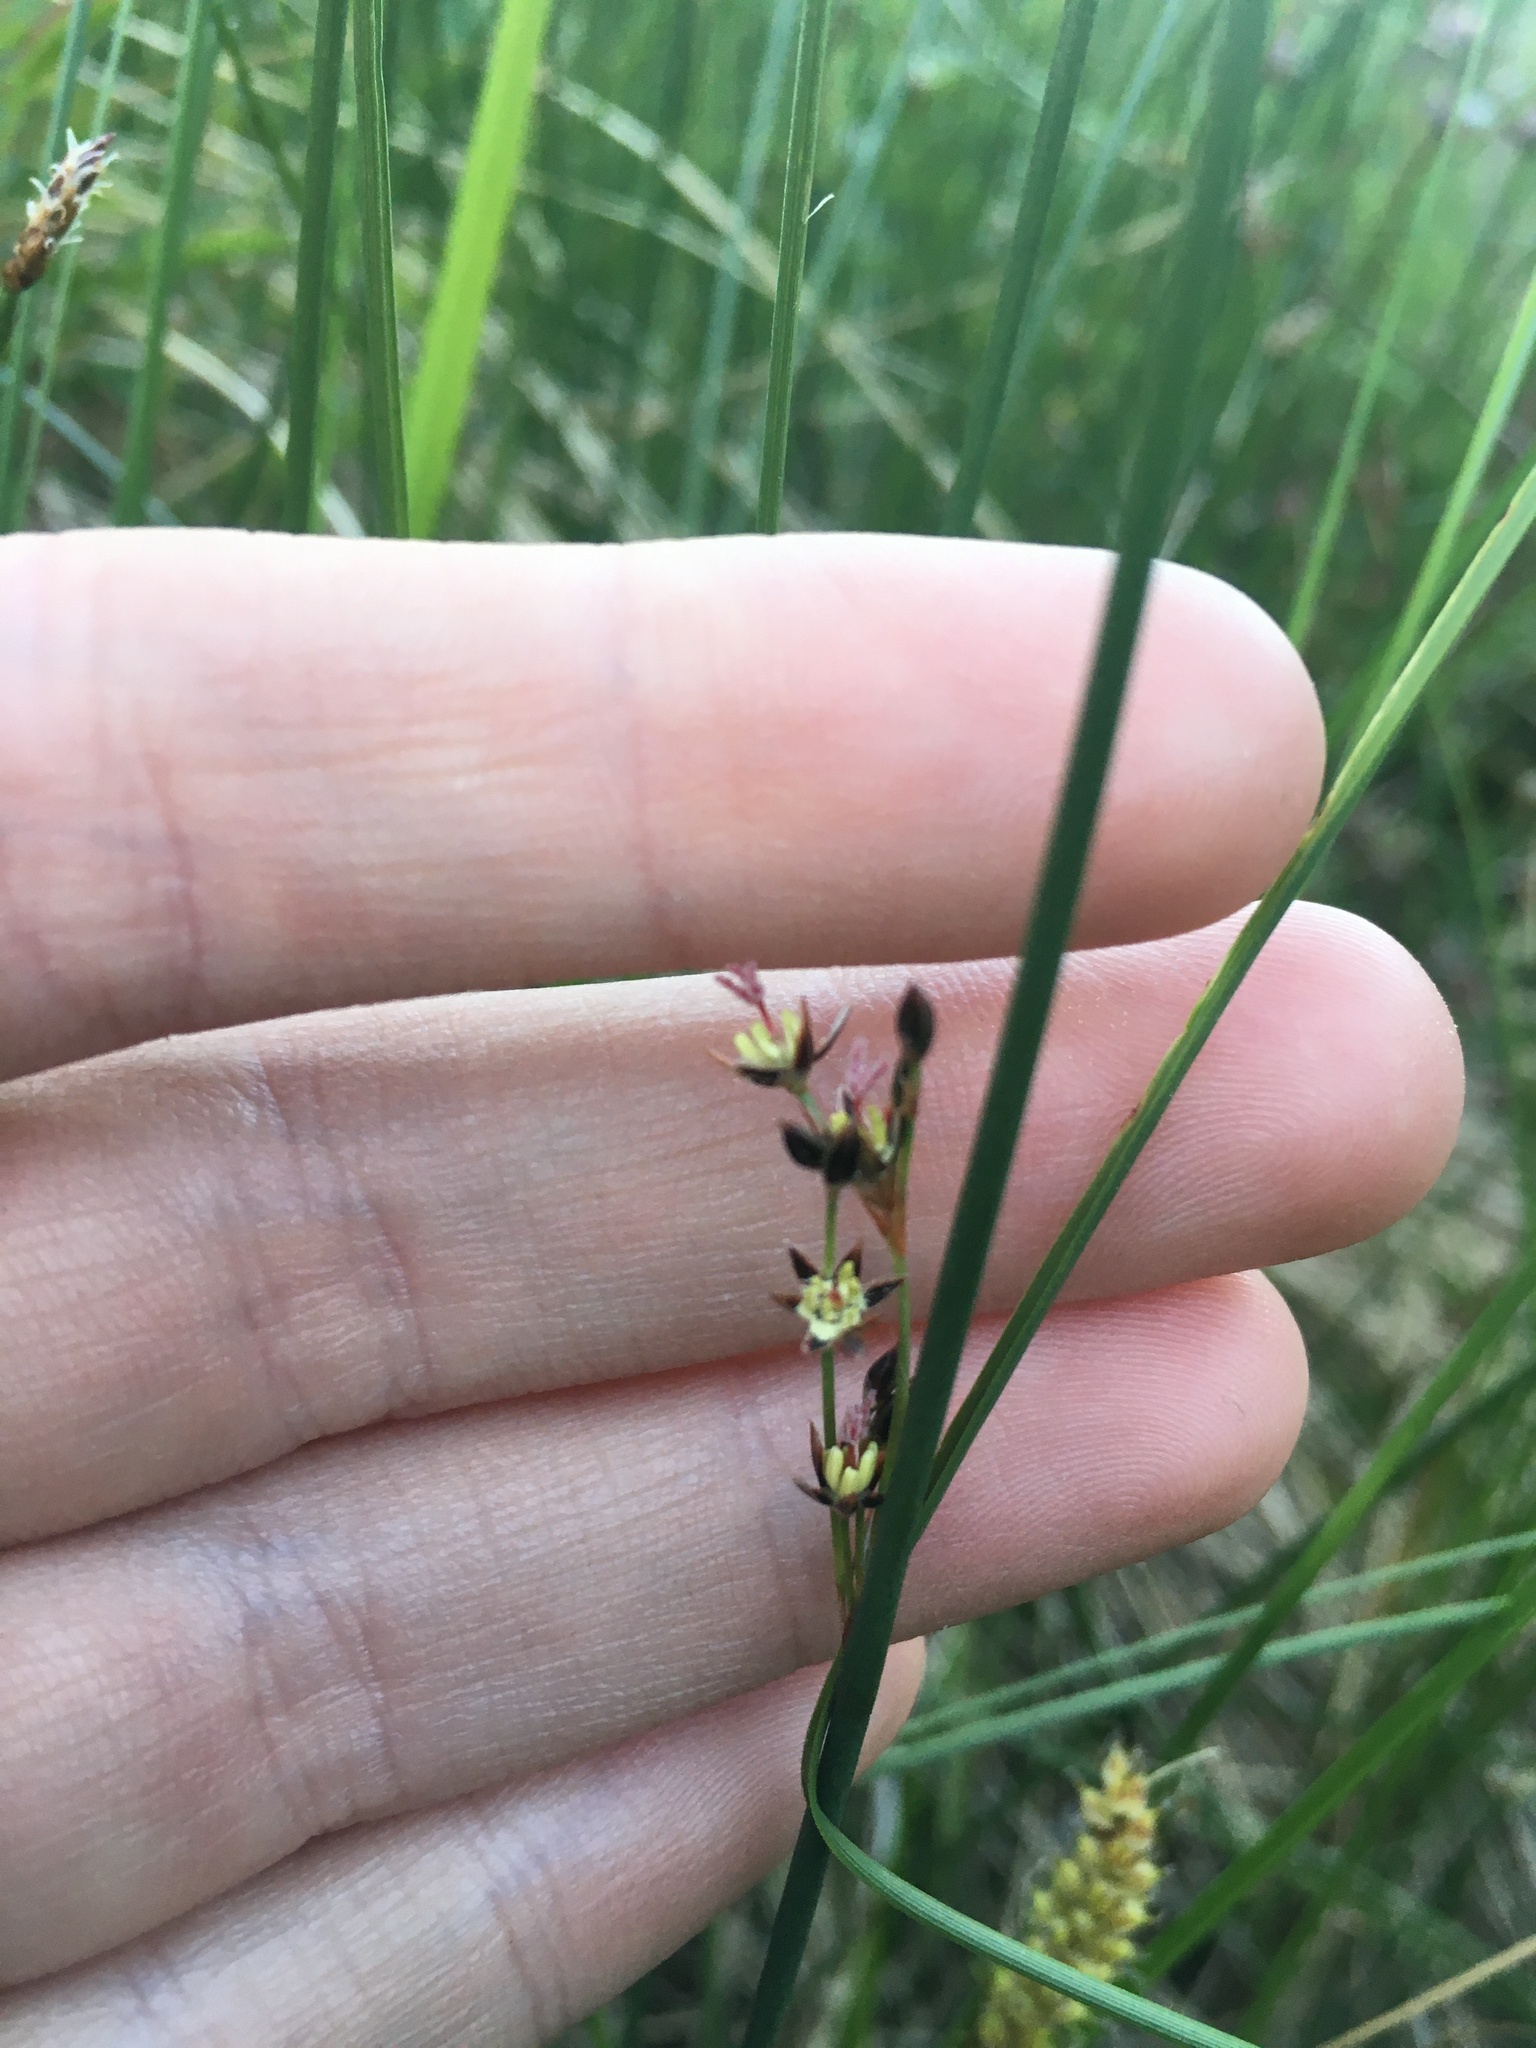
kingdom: Plantae
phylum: Tracheophyta
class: Liliopsida
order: Poales
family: Juncaceae
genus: Juncus
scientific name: Juncus balticus
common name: Baltic rush
